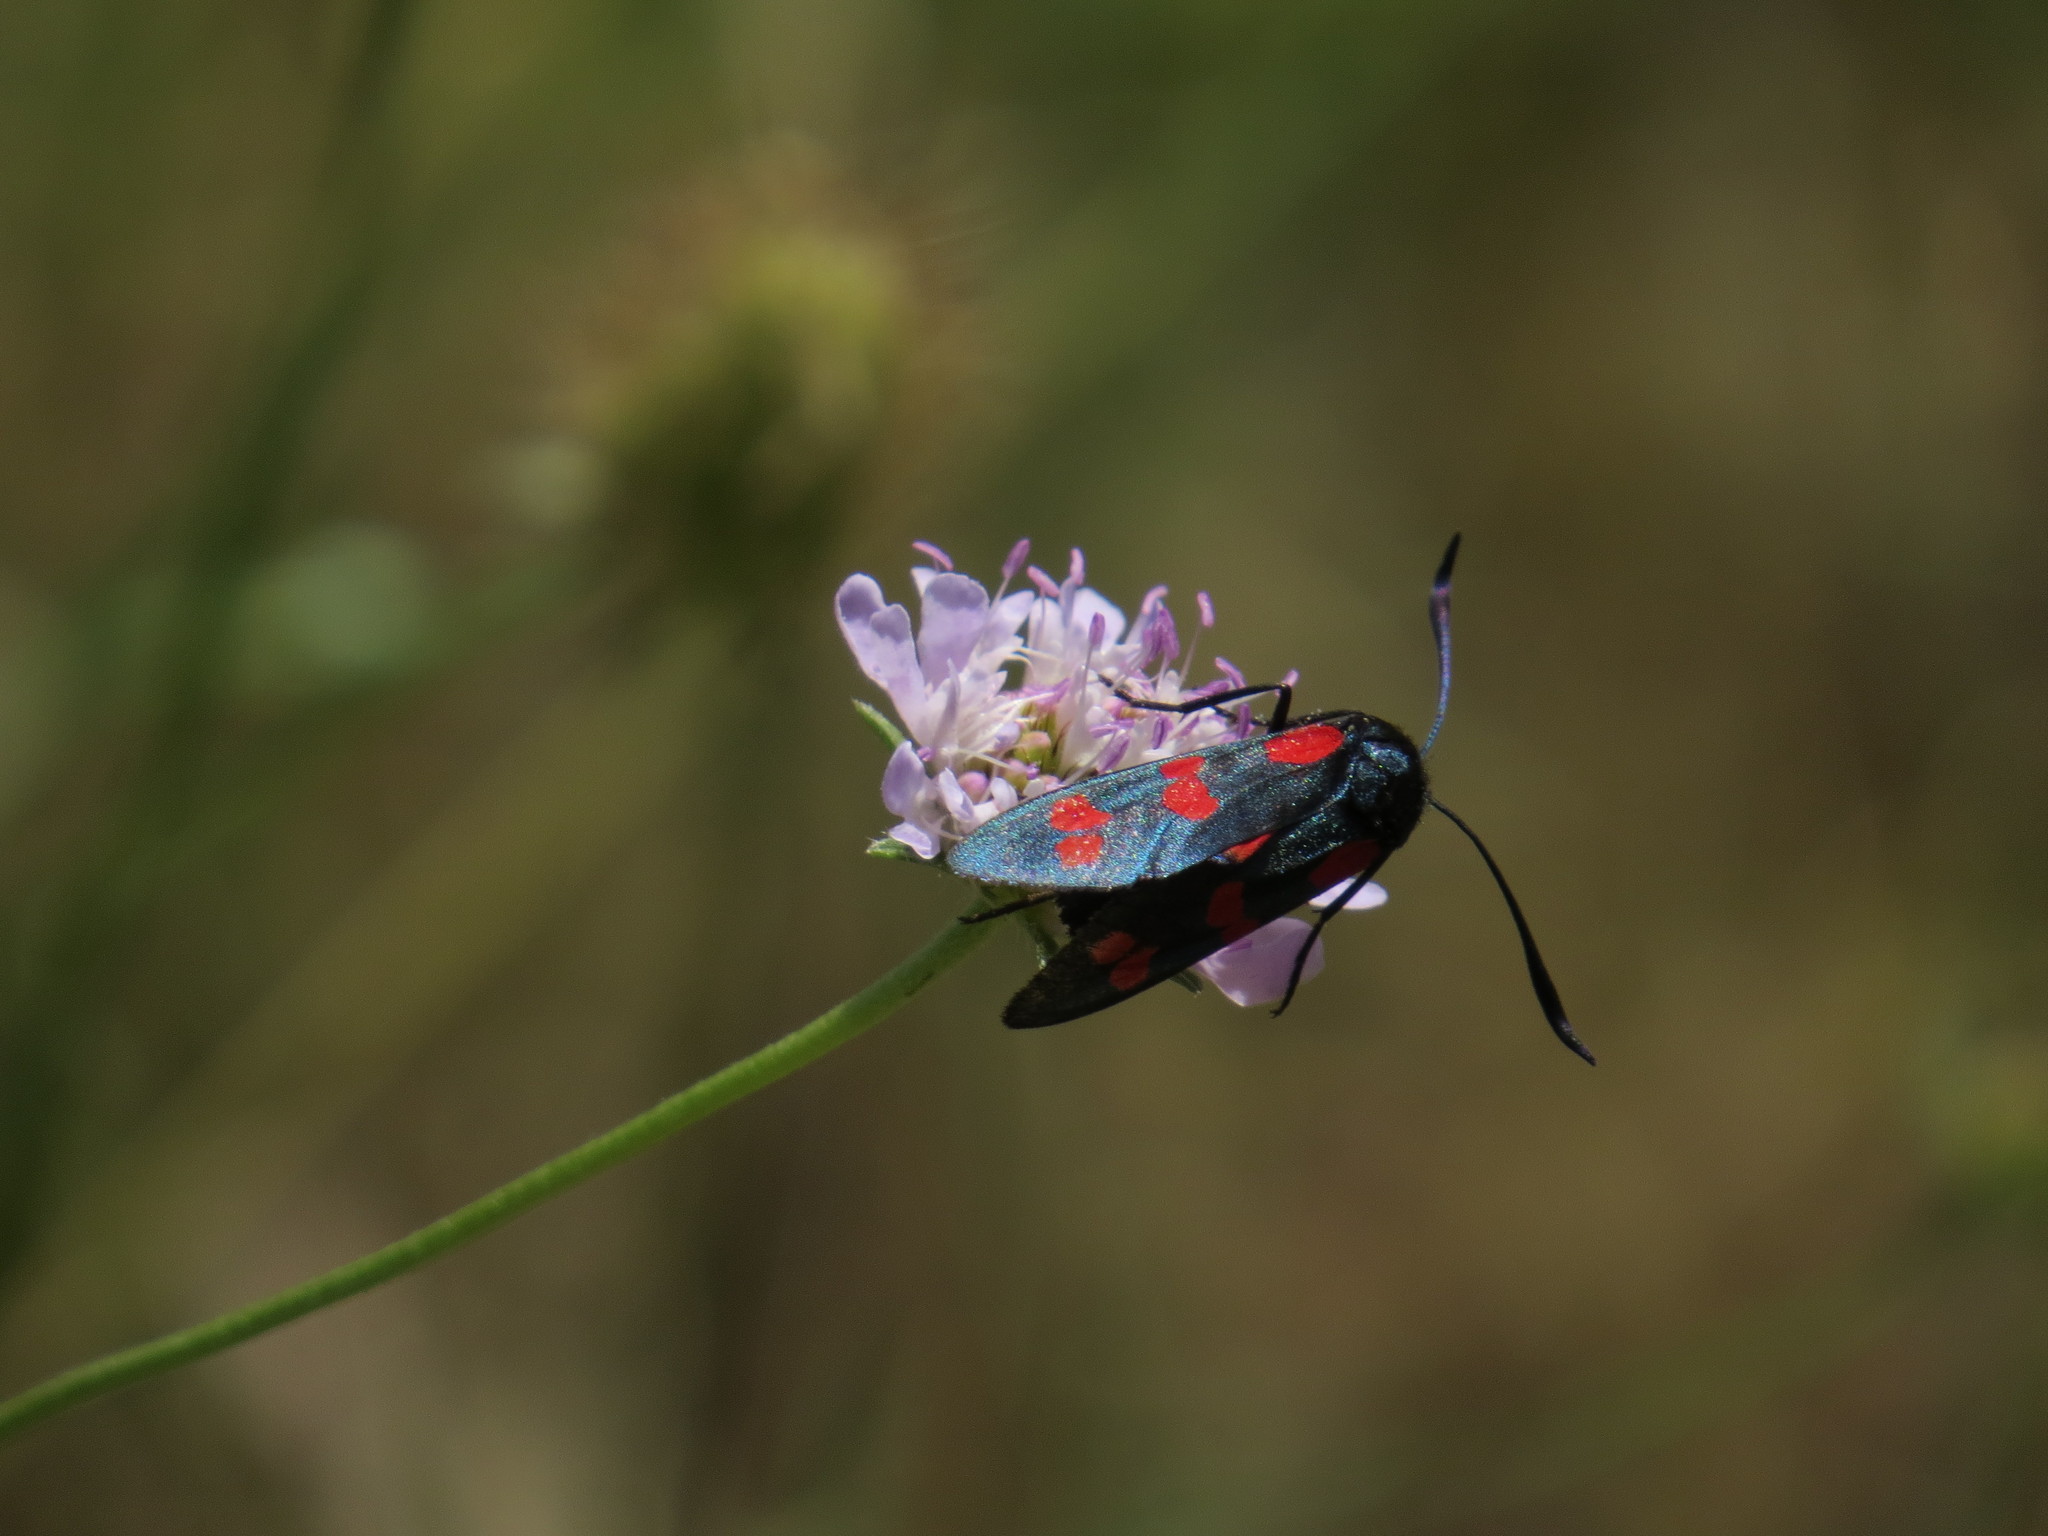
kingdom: Animalia
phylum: Arthropoda
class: Insecta
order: Lepidoptera
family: Zygaenidae
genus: Zygaena
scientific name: Zygaena filipendulae
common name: Six-spot burnet
